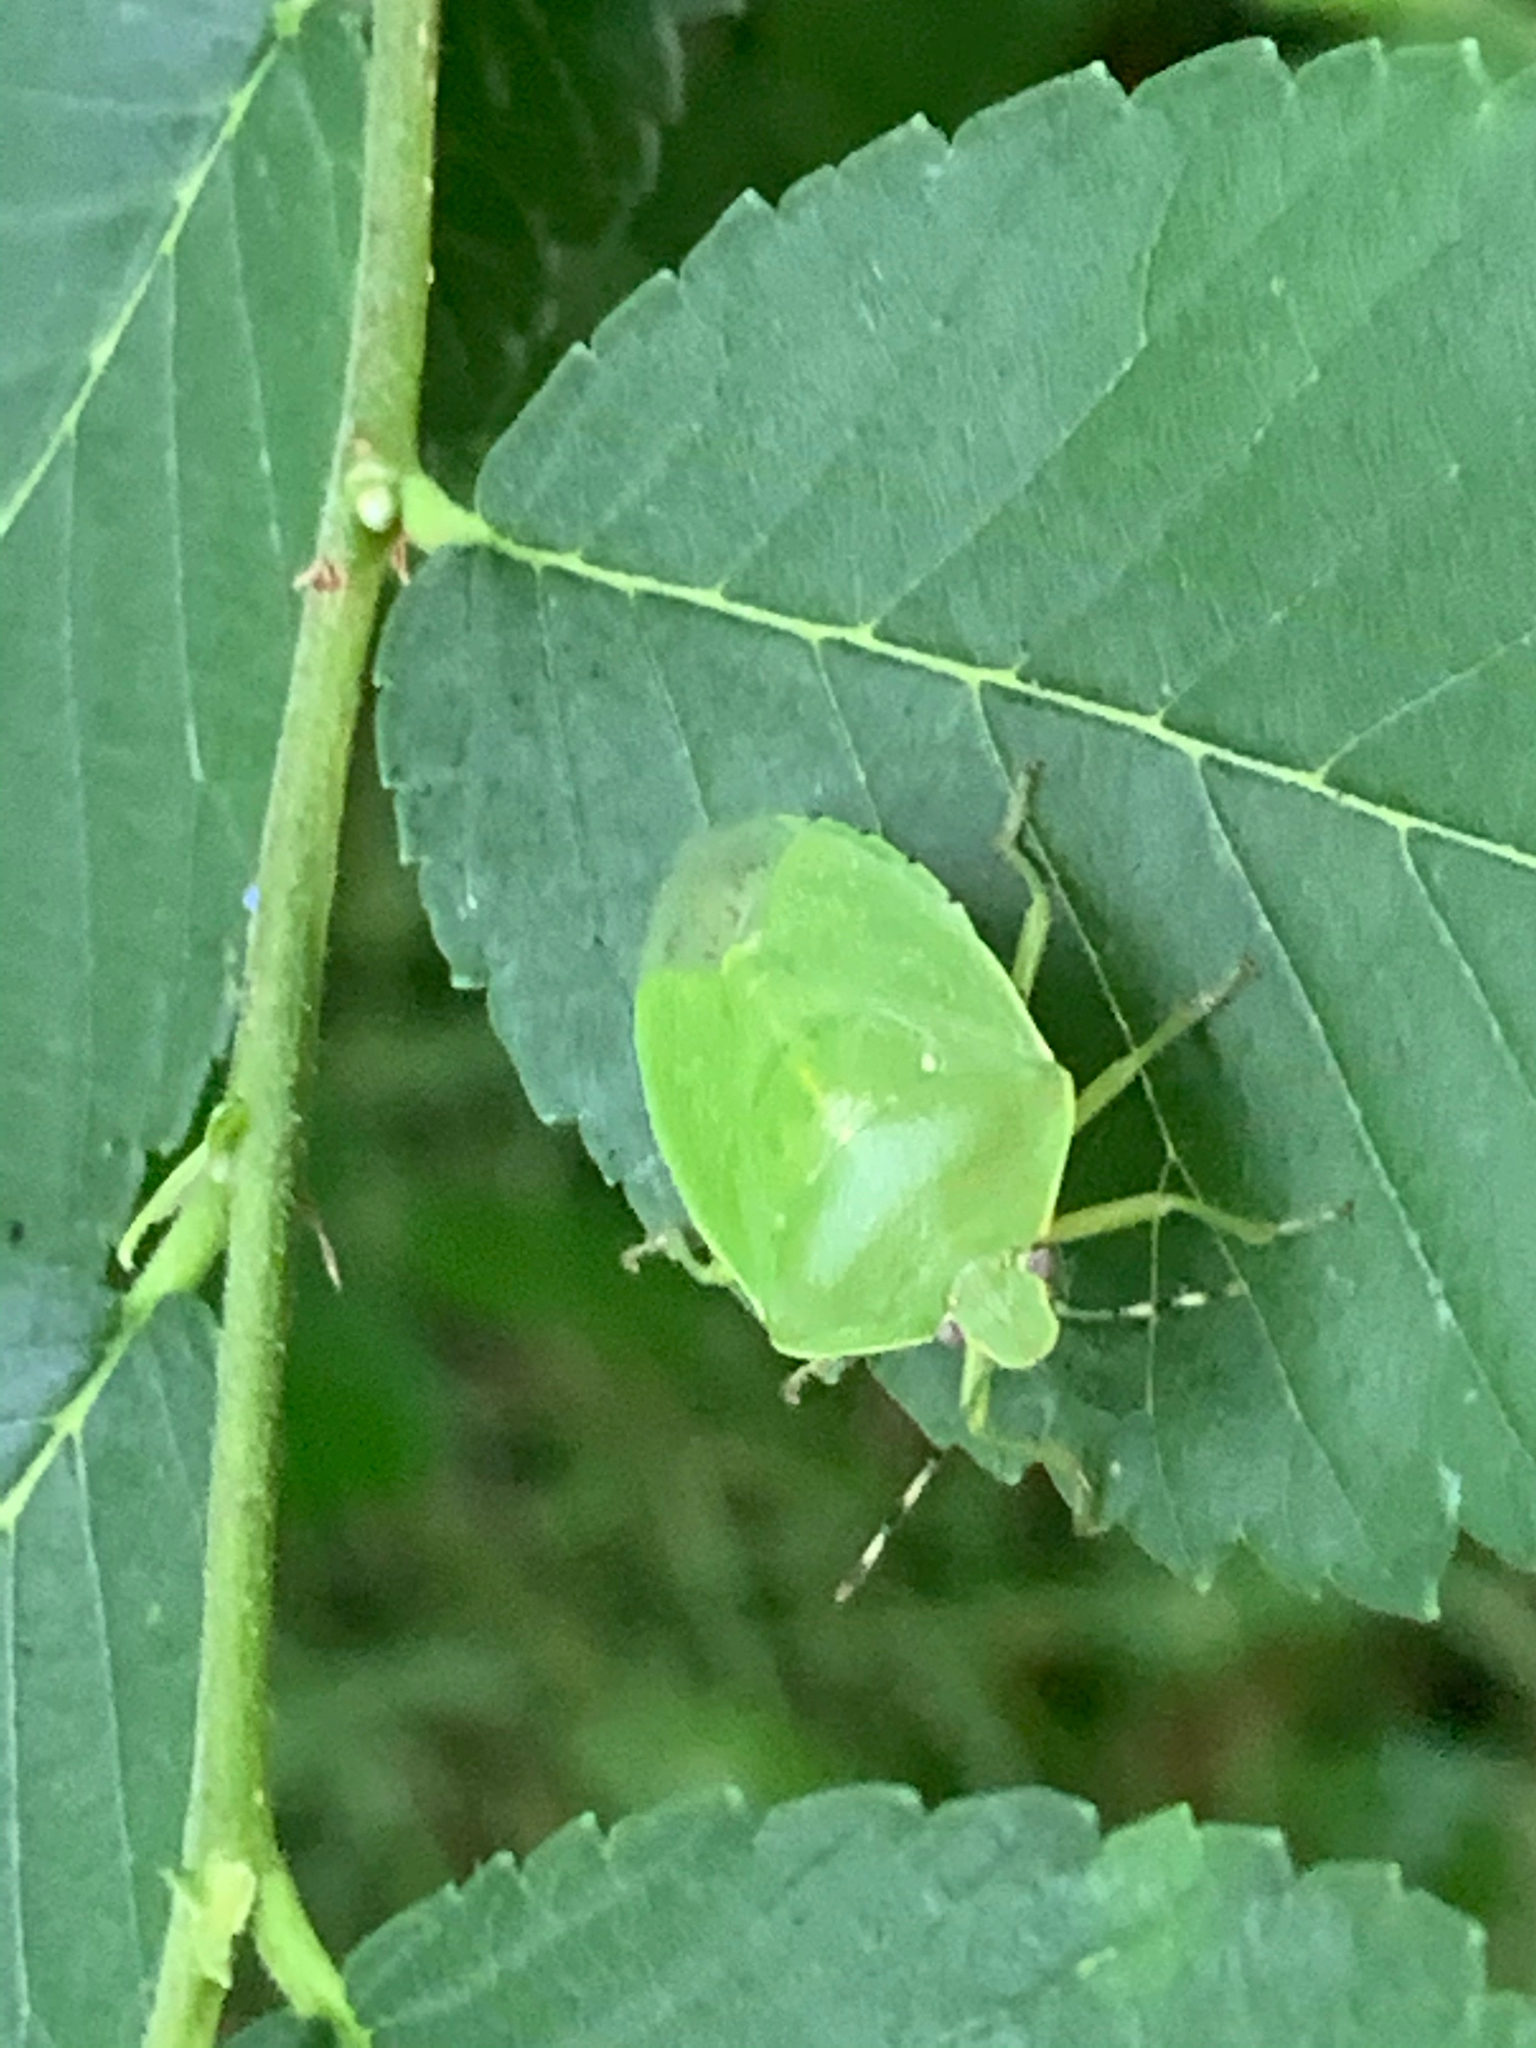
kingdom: Animalia
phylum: Arthropoda
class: Insecta
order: Hemiptera
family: Pentatomidae
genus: Chinavia
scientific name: Chinavia hilaris
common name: Green stink bug
